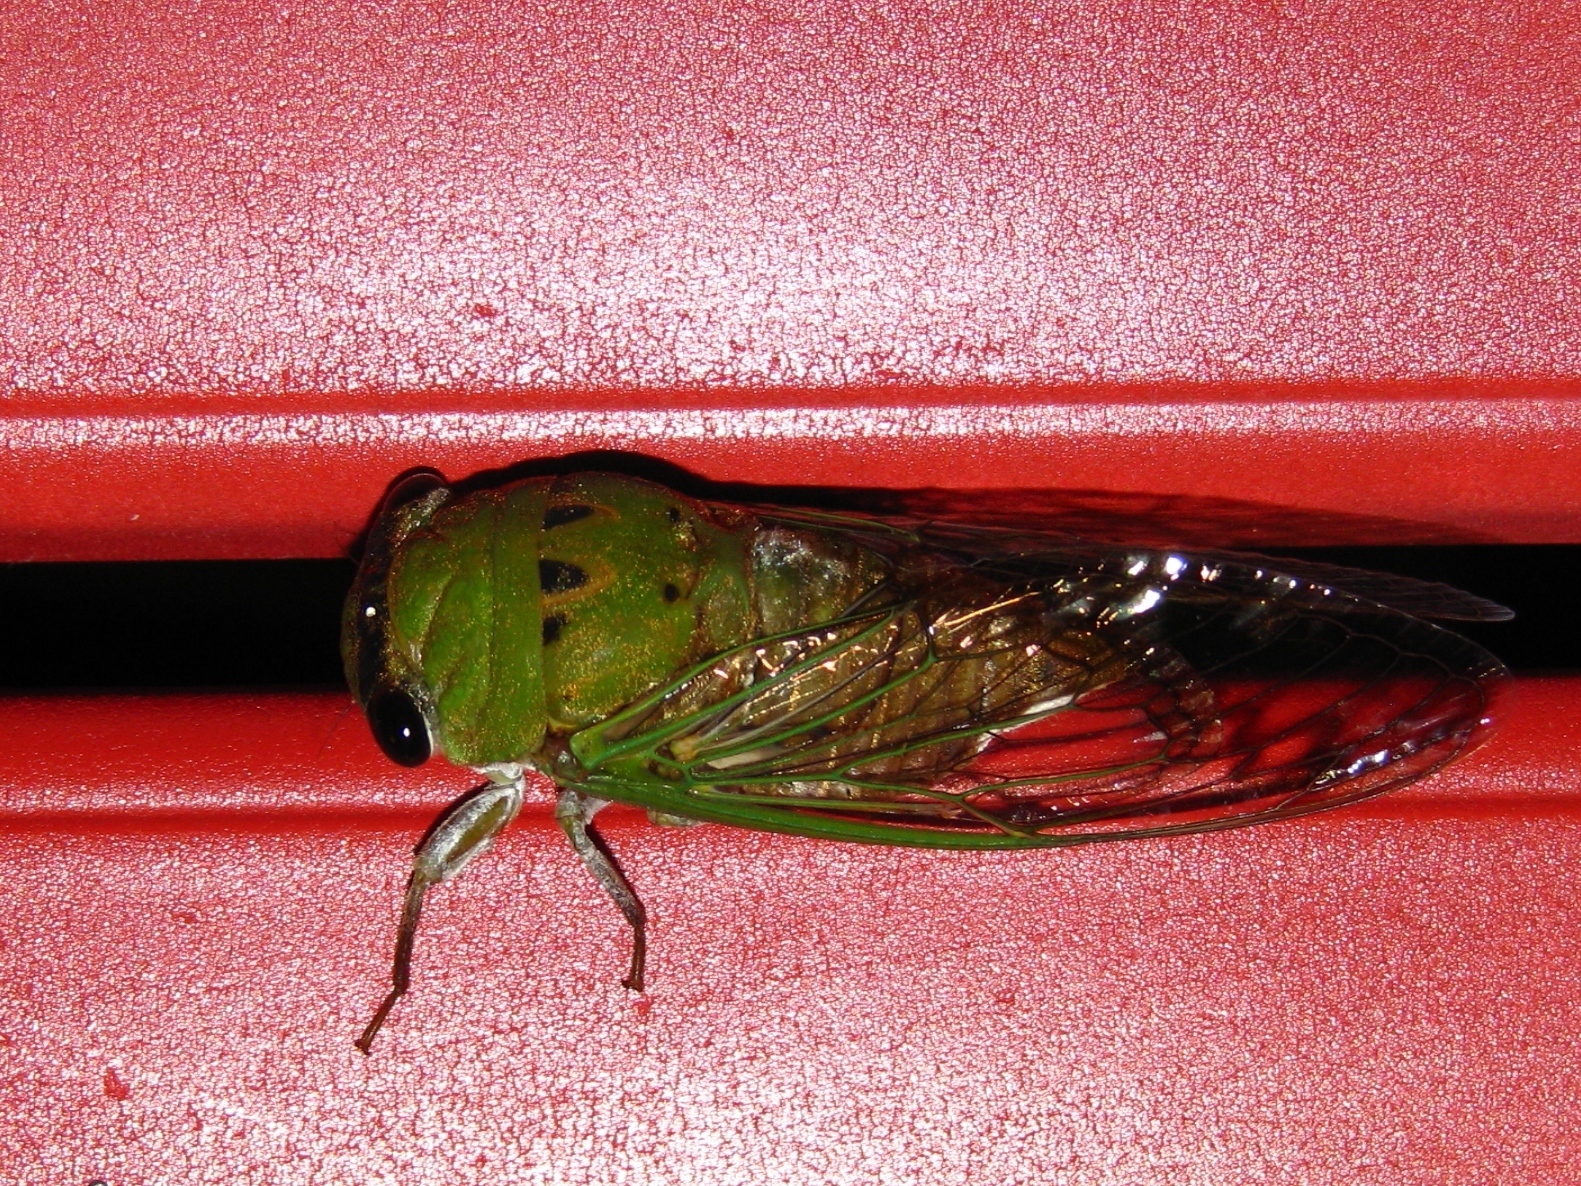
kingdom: Animalia
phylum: Arthropoda
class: Insecta
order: Hemiptera
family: Cicadidae
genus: Neotibicen
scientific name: Neotibicen superbus
